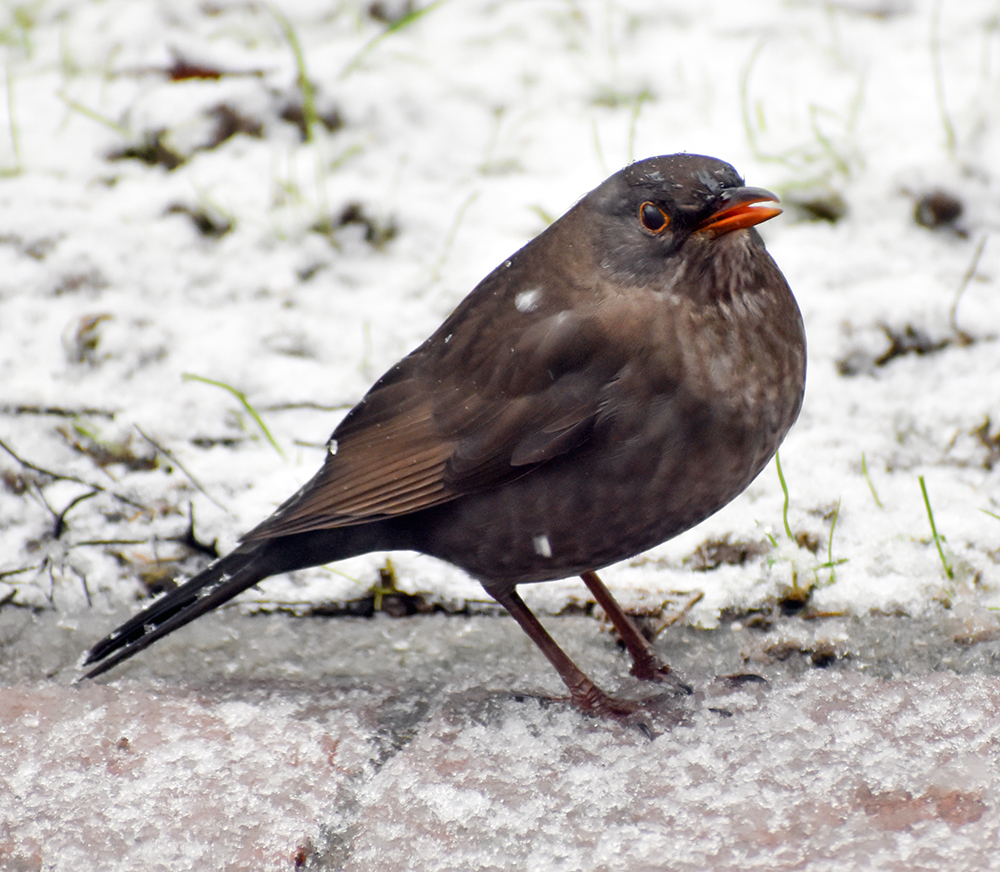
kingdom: Animalia
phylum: Chordata
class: Aves
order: Passeriformes
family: Turdidae
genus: Turdus
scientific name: Turdus merula
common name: Common blackbird
